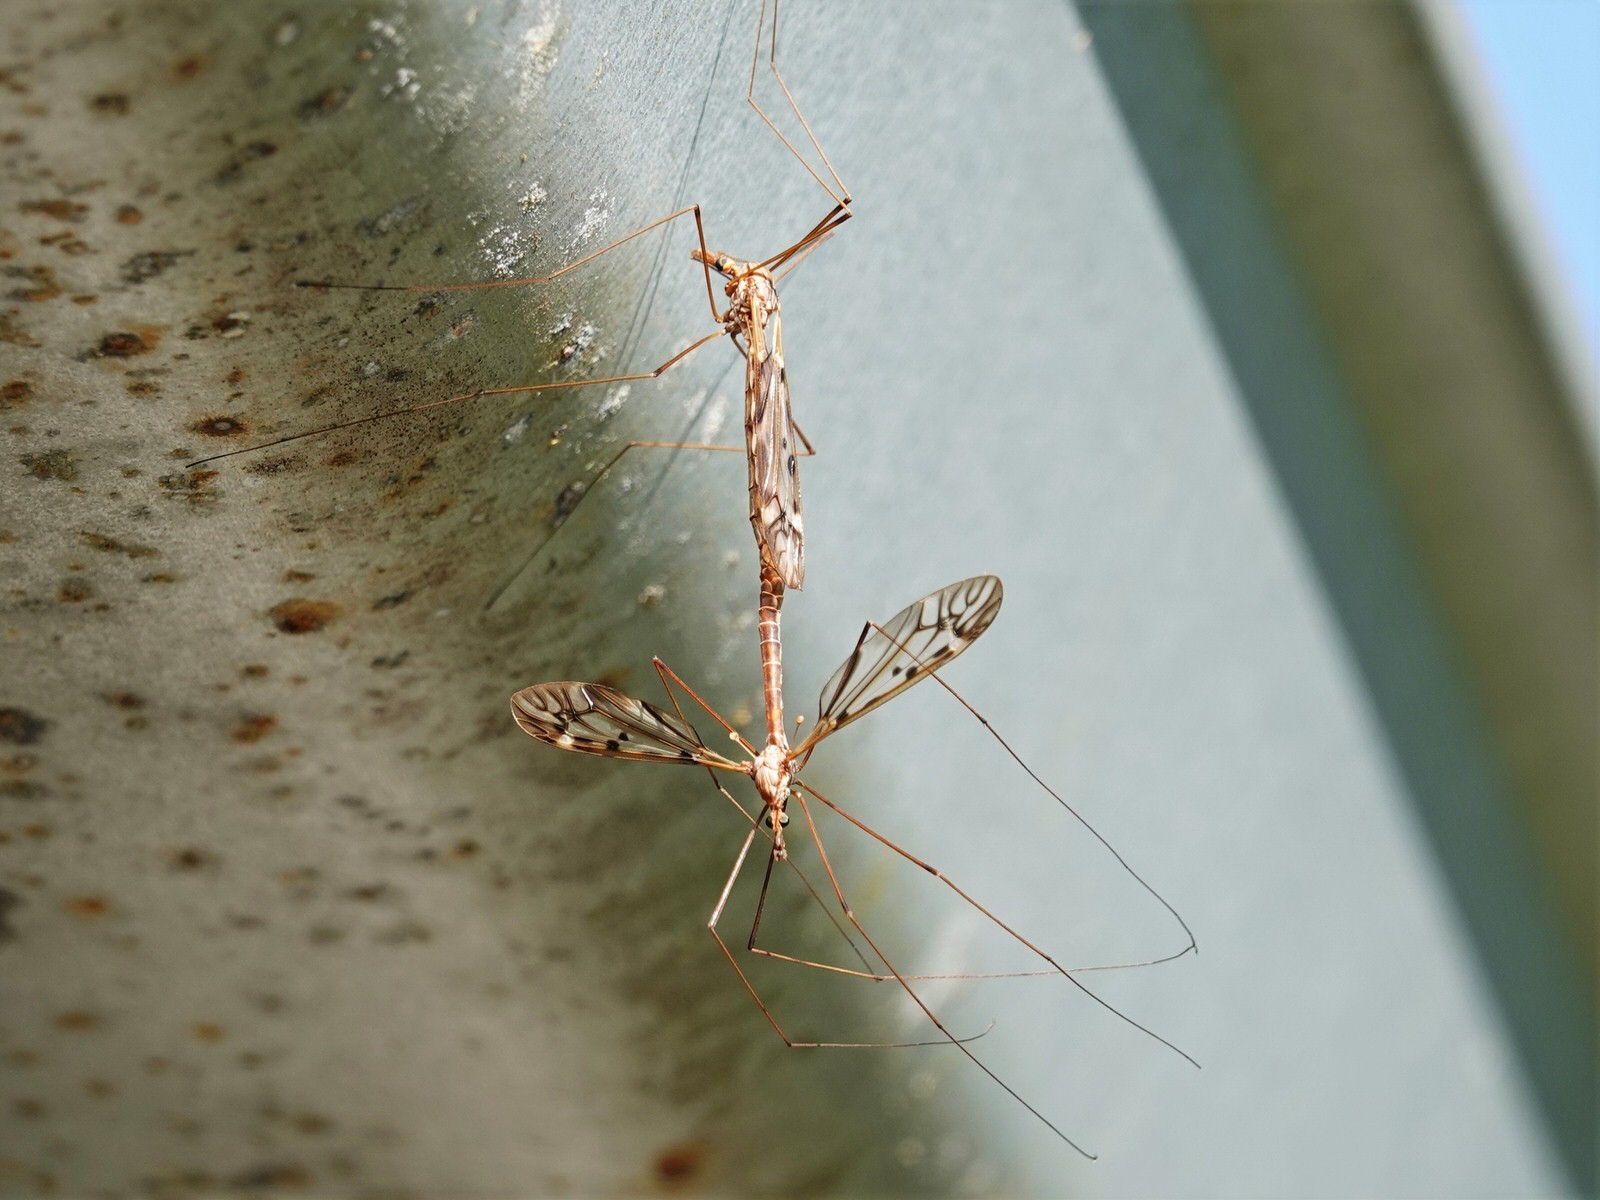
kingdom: Animalia
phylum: Arthropoda
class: Insecta
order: Diptera
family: Tipulidae
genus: Zelandotipula
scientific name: Zelandotipula novarae
